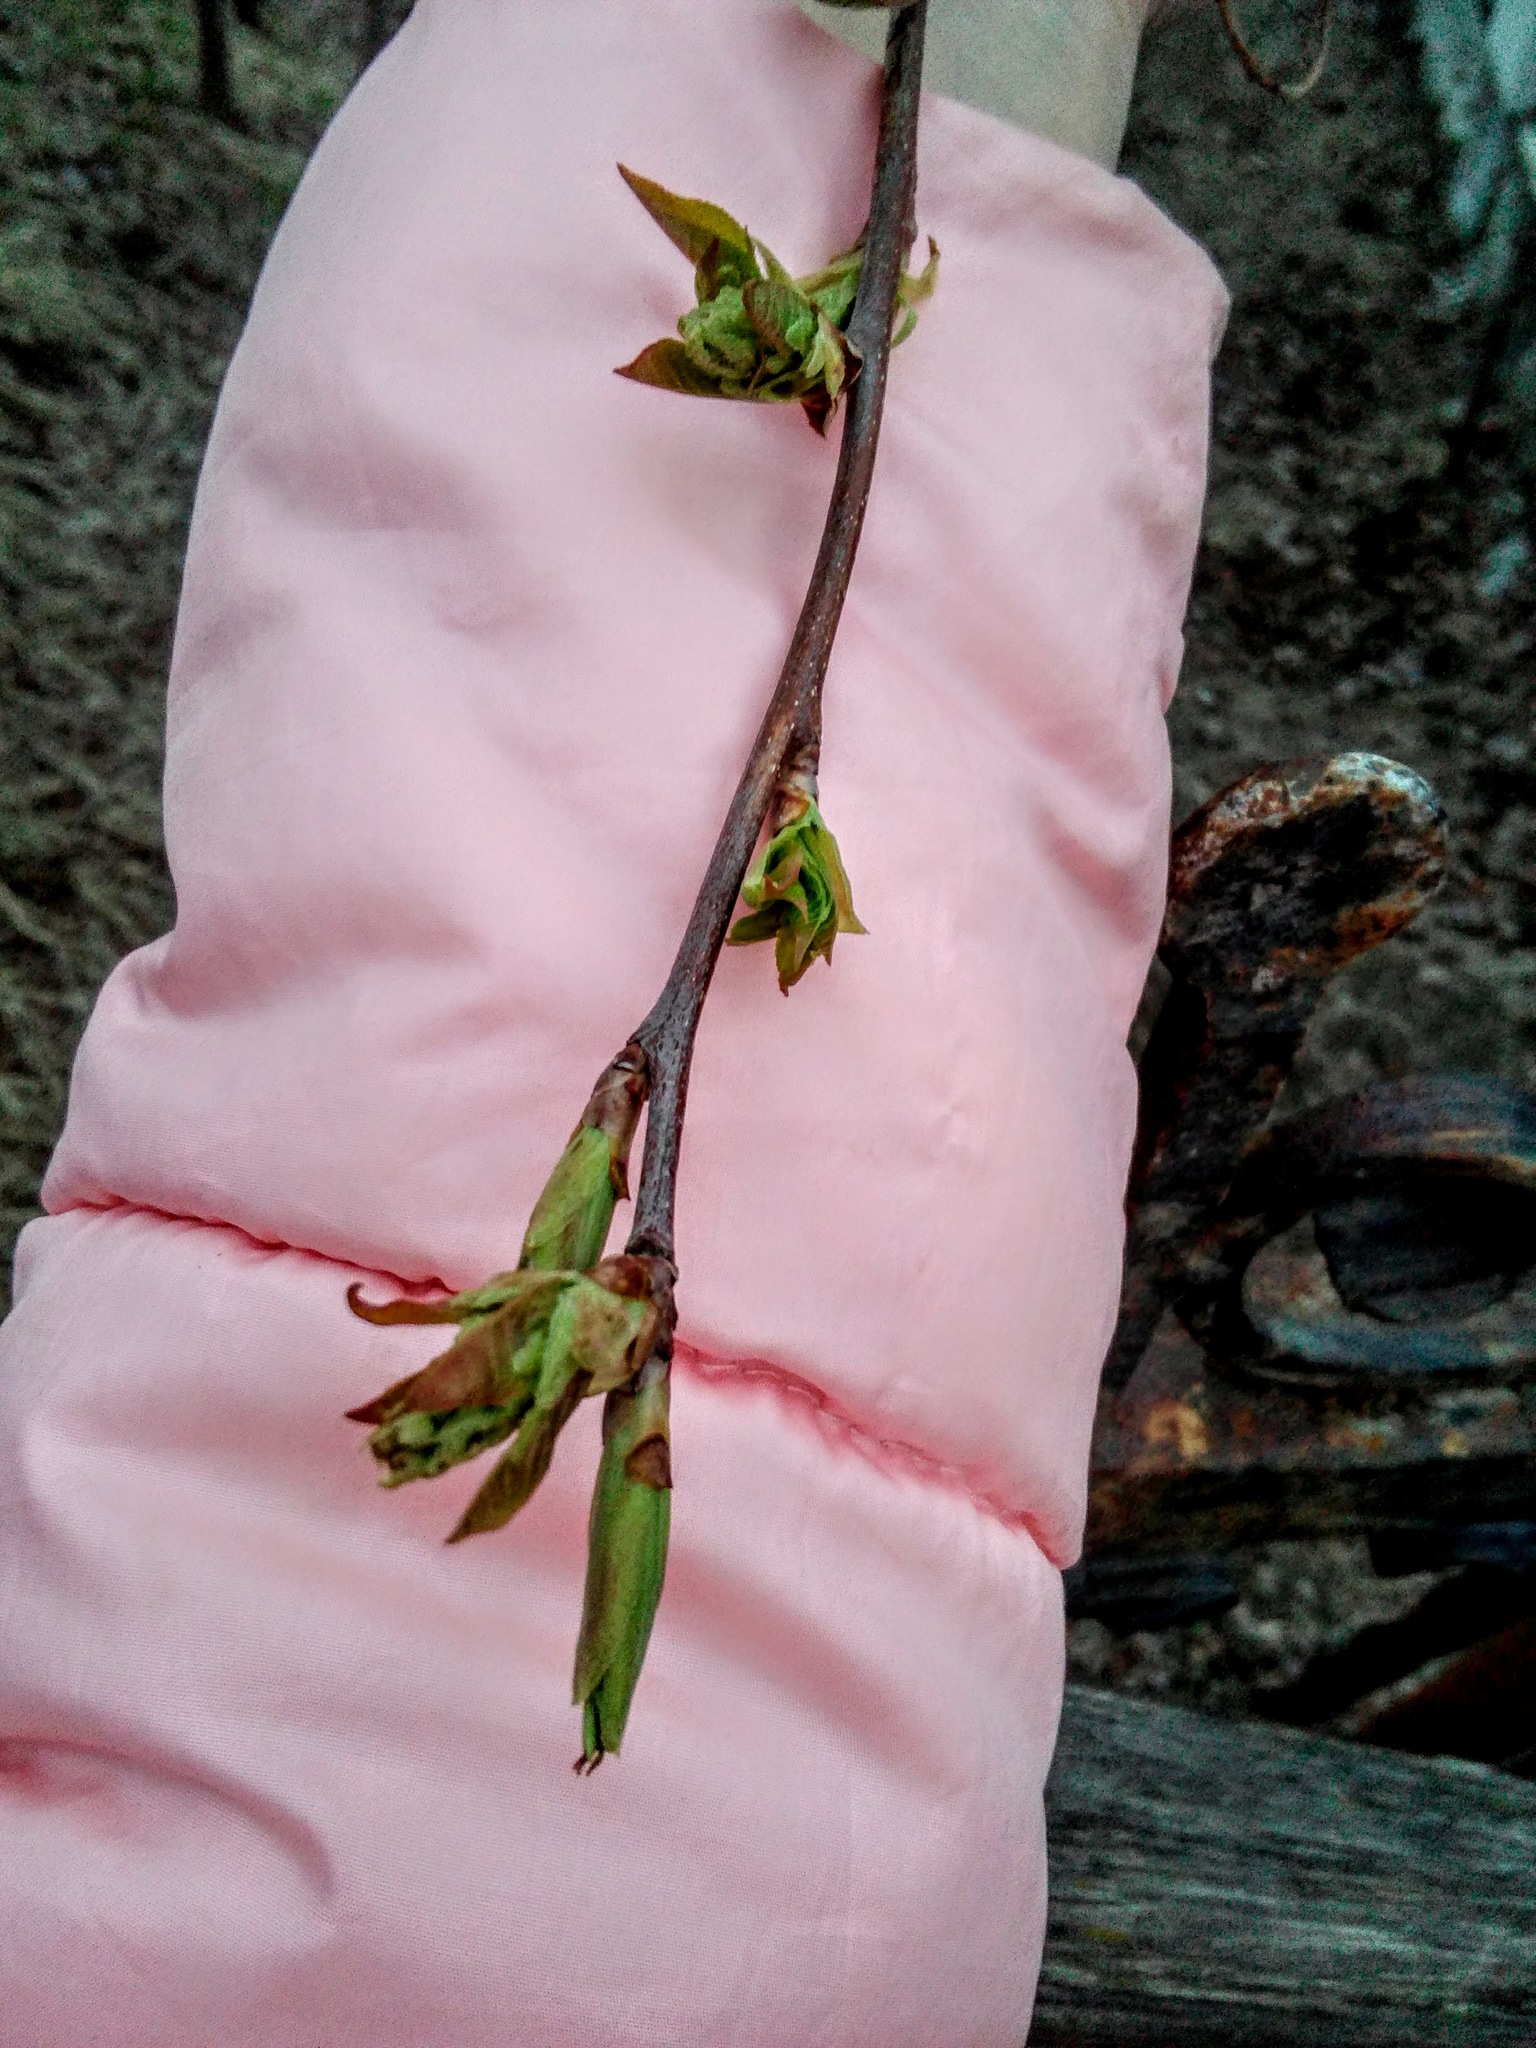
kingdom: Plantae
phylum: Tracheophyta
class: Magnoliopsida
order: Rosales
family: Rosaceae
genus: Prunus
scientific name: Prunus padus
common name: Bird cherry
